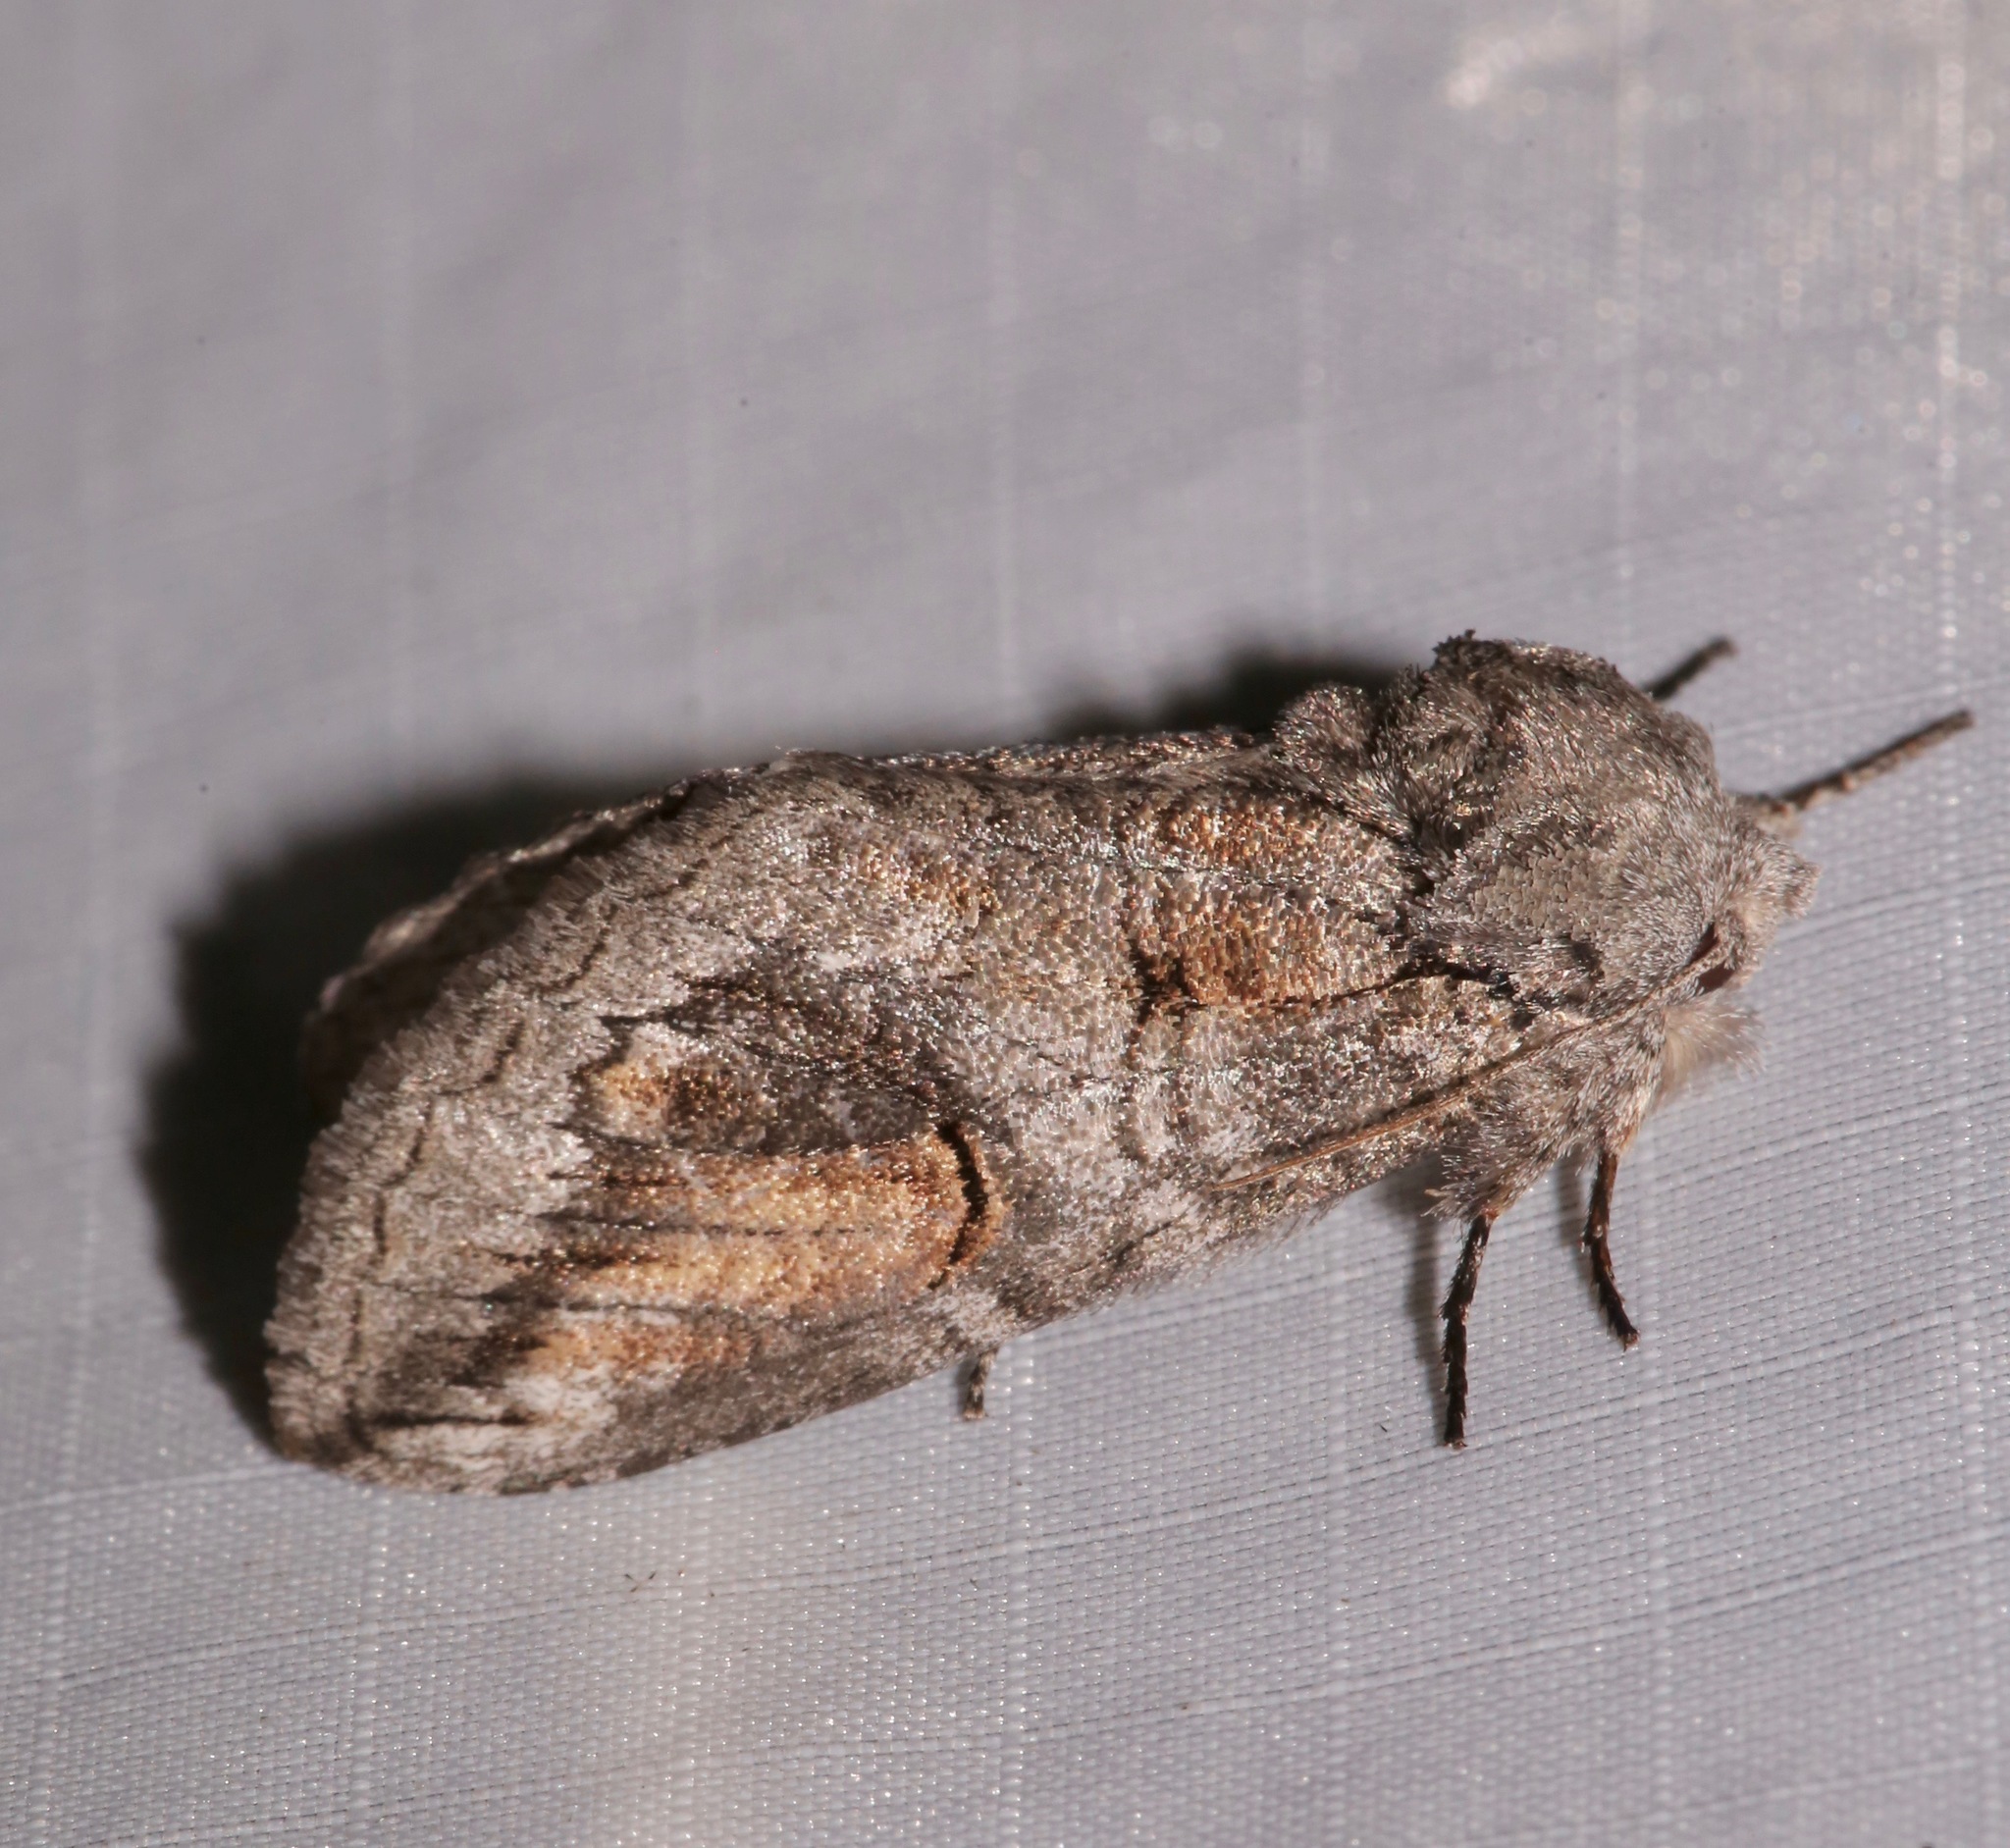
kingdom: Animalia
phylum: Arthropoda
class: Insecta
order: Lepidoptera
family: Notodontidae
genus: Heterocampa
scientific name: Heterocampa secessionis
